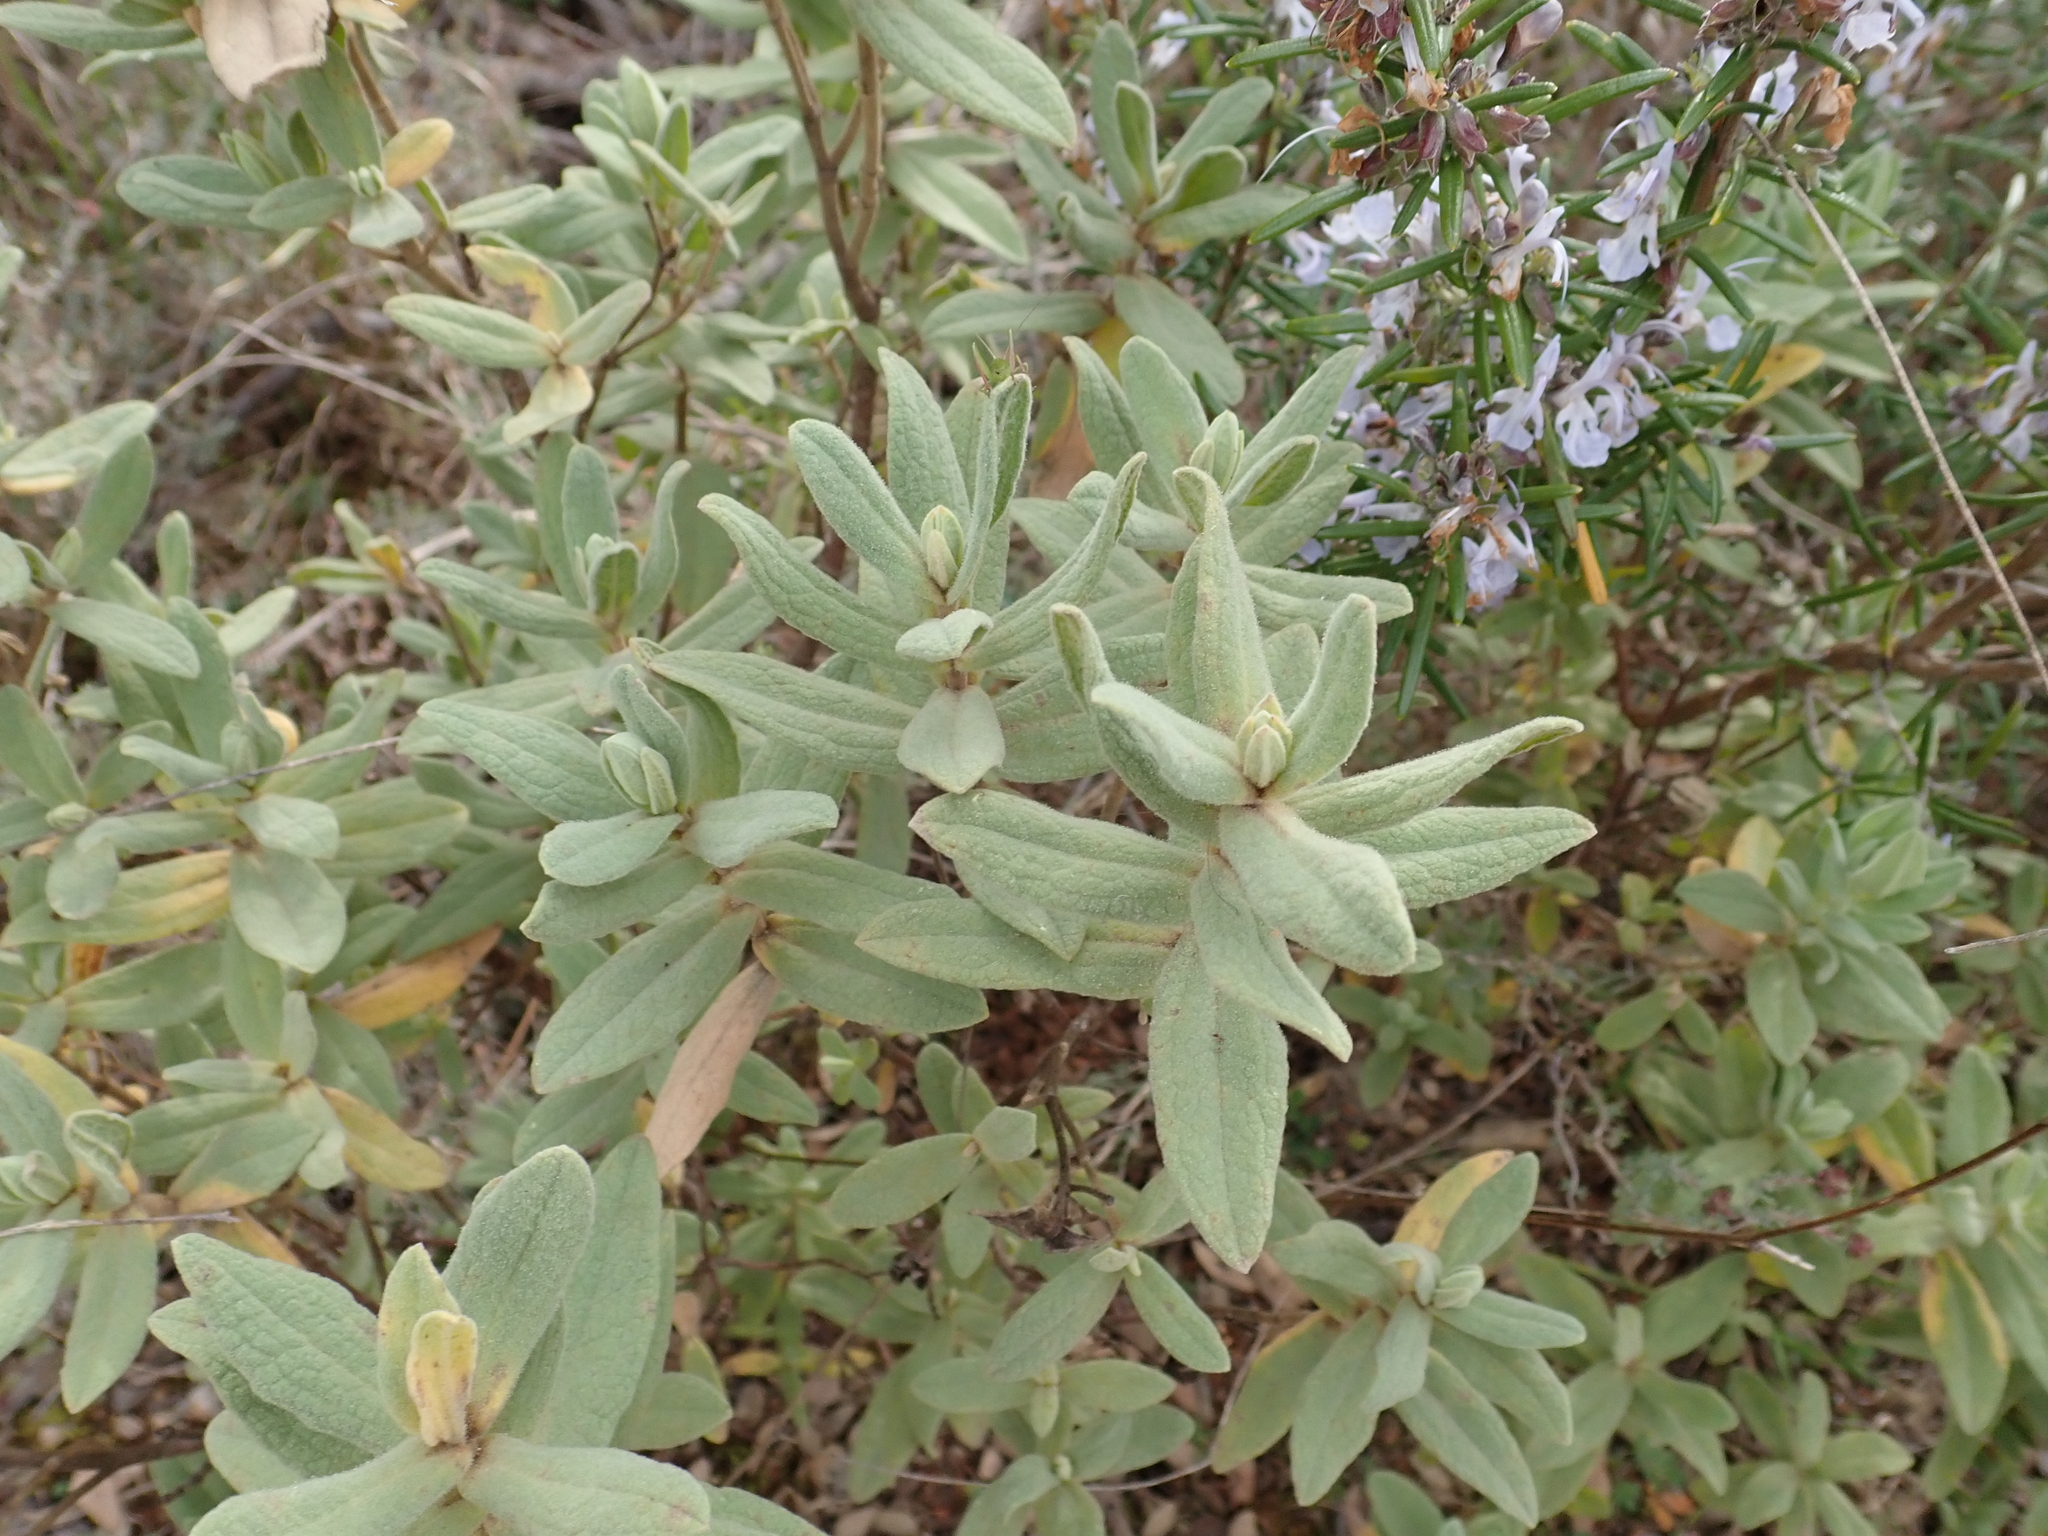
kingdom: Plantae
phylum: Tracheophyta
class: Magnoliopsida
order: Malvales
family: Cistaceae
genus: Cistus
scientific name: Cistus albidus
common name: White-leaf rock-rose
